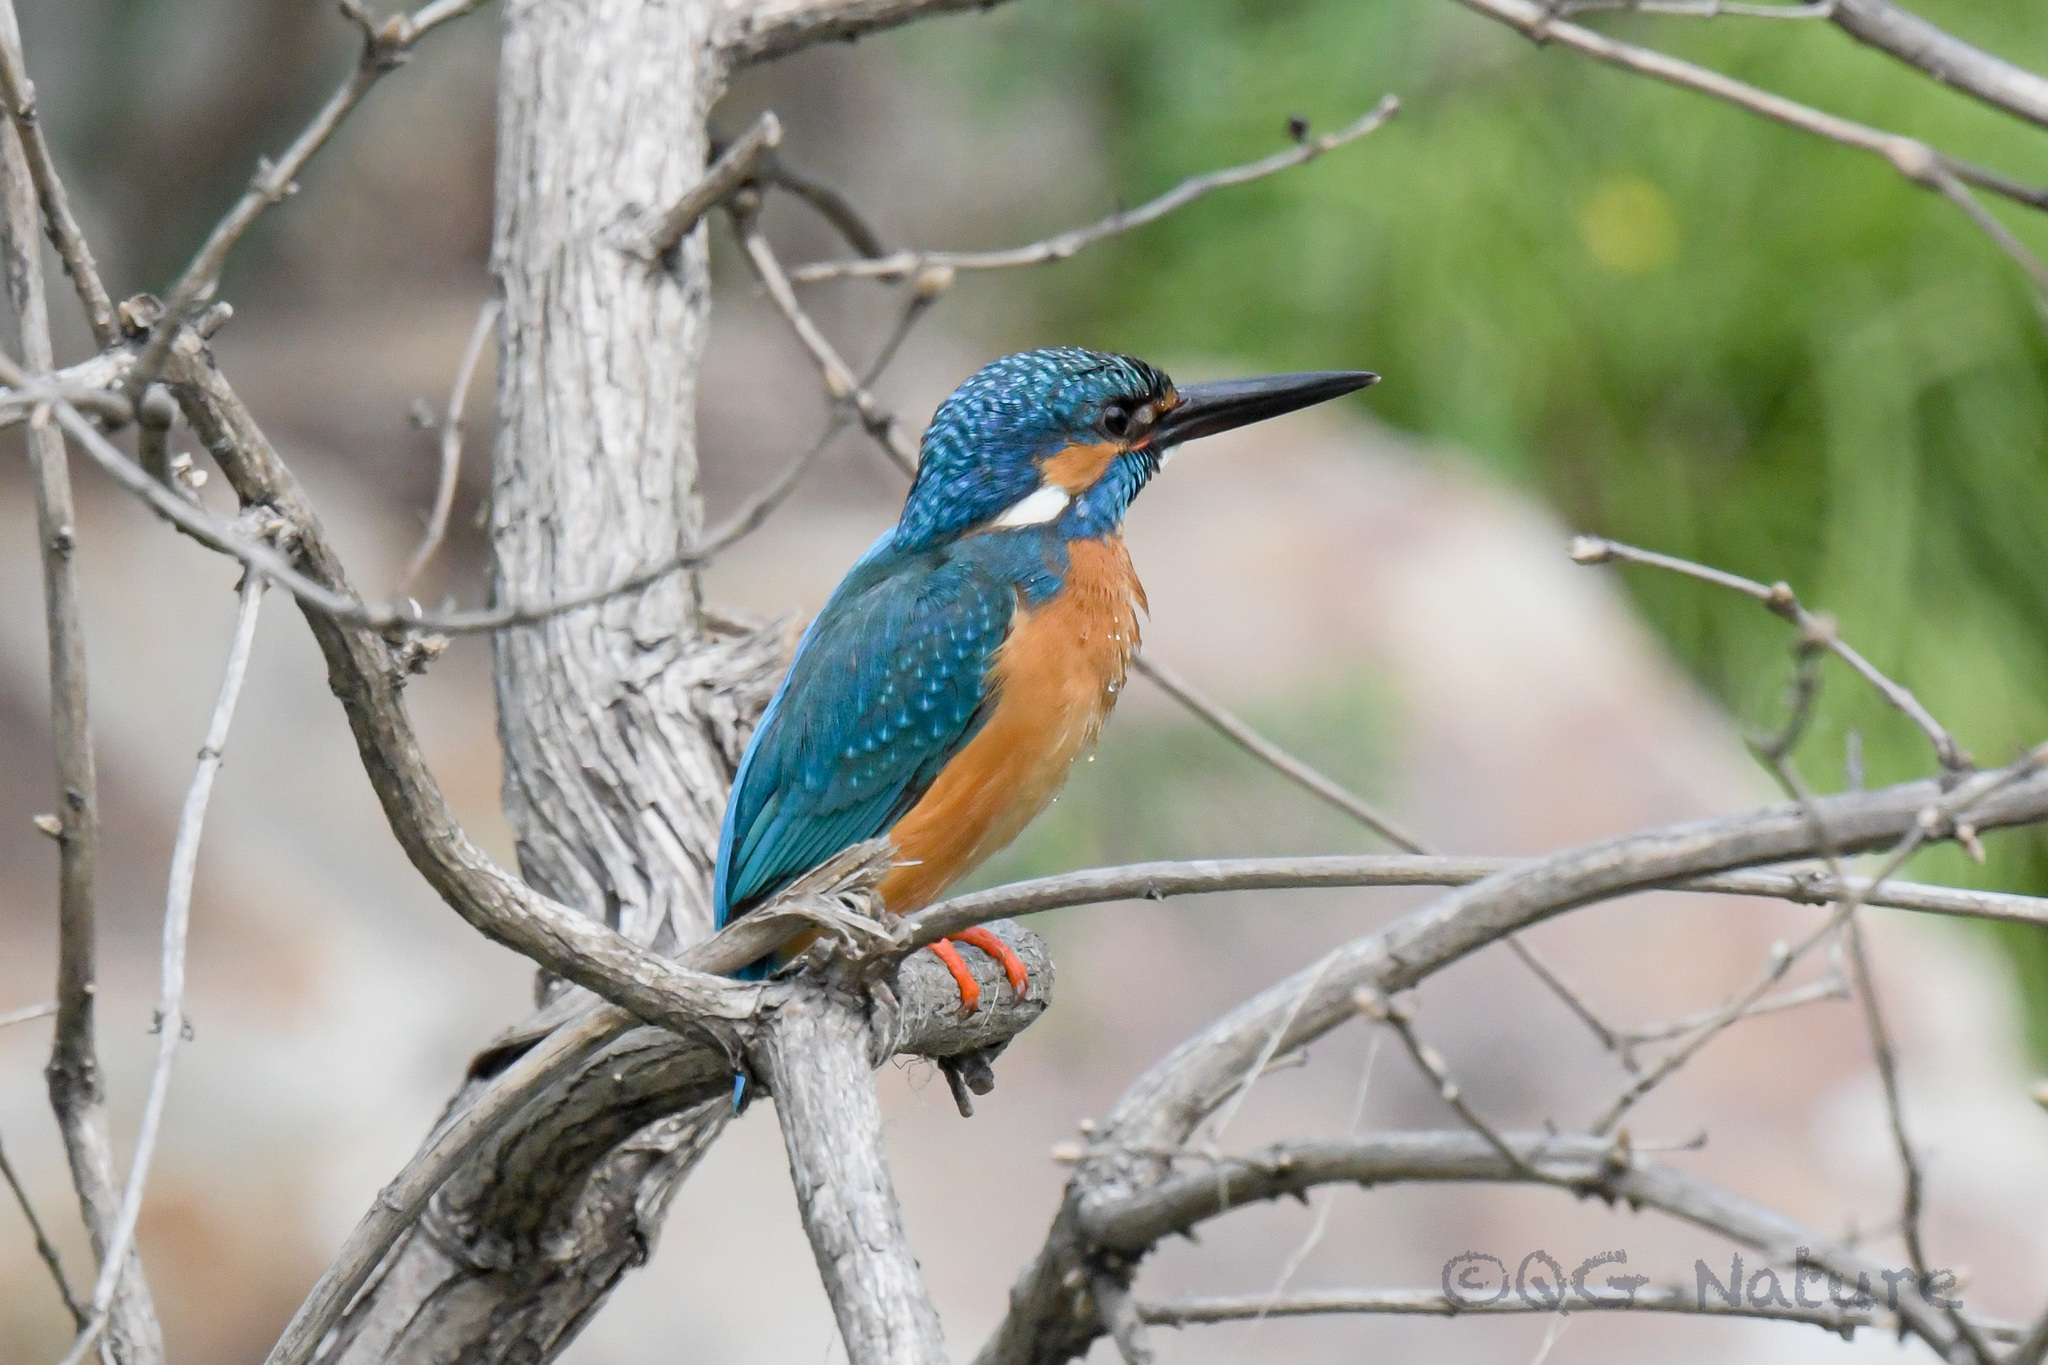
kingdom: Animalia
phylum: Chordata
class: Aves
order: Coraciiformes
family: Alcedinidae
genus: Alcedo
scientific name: Alcedo atthis
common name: Common kingfisher
